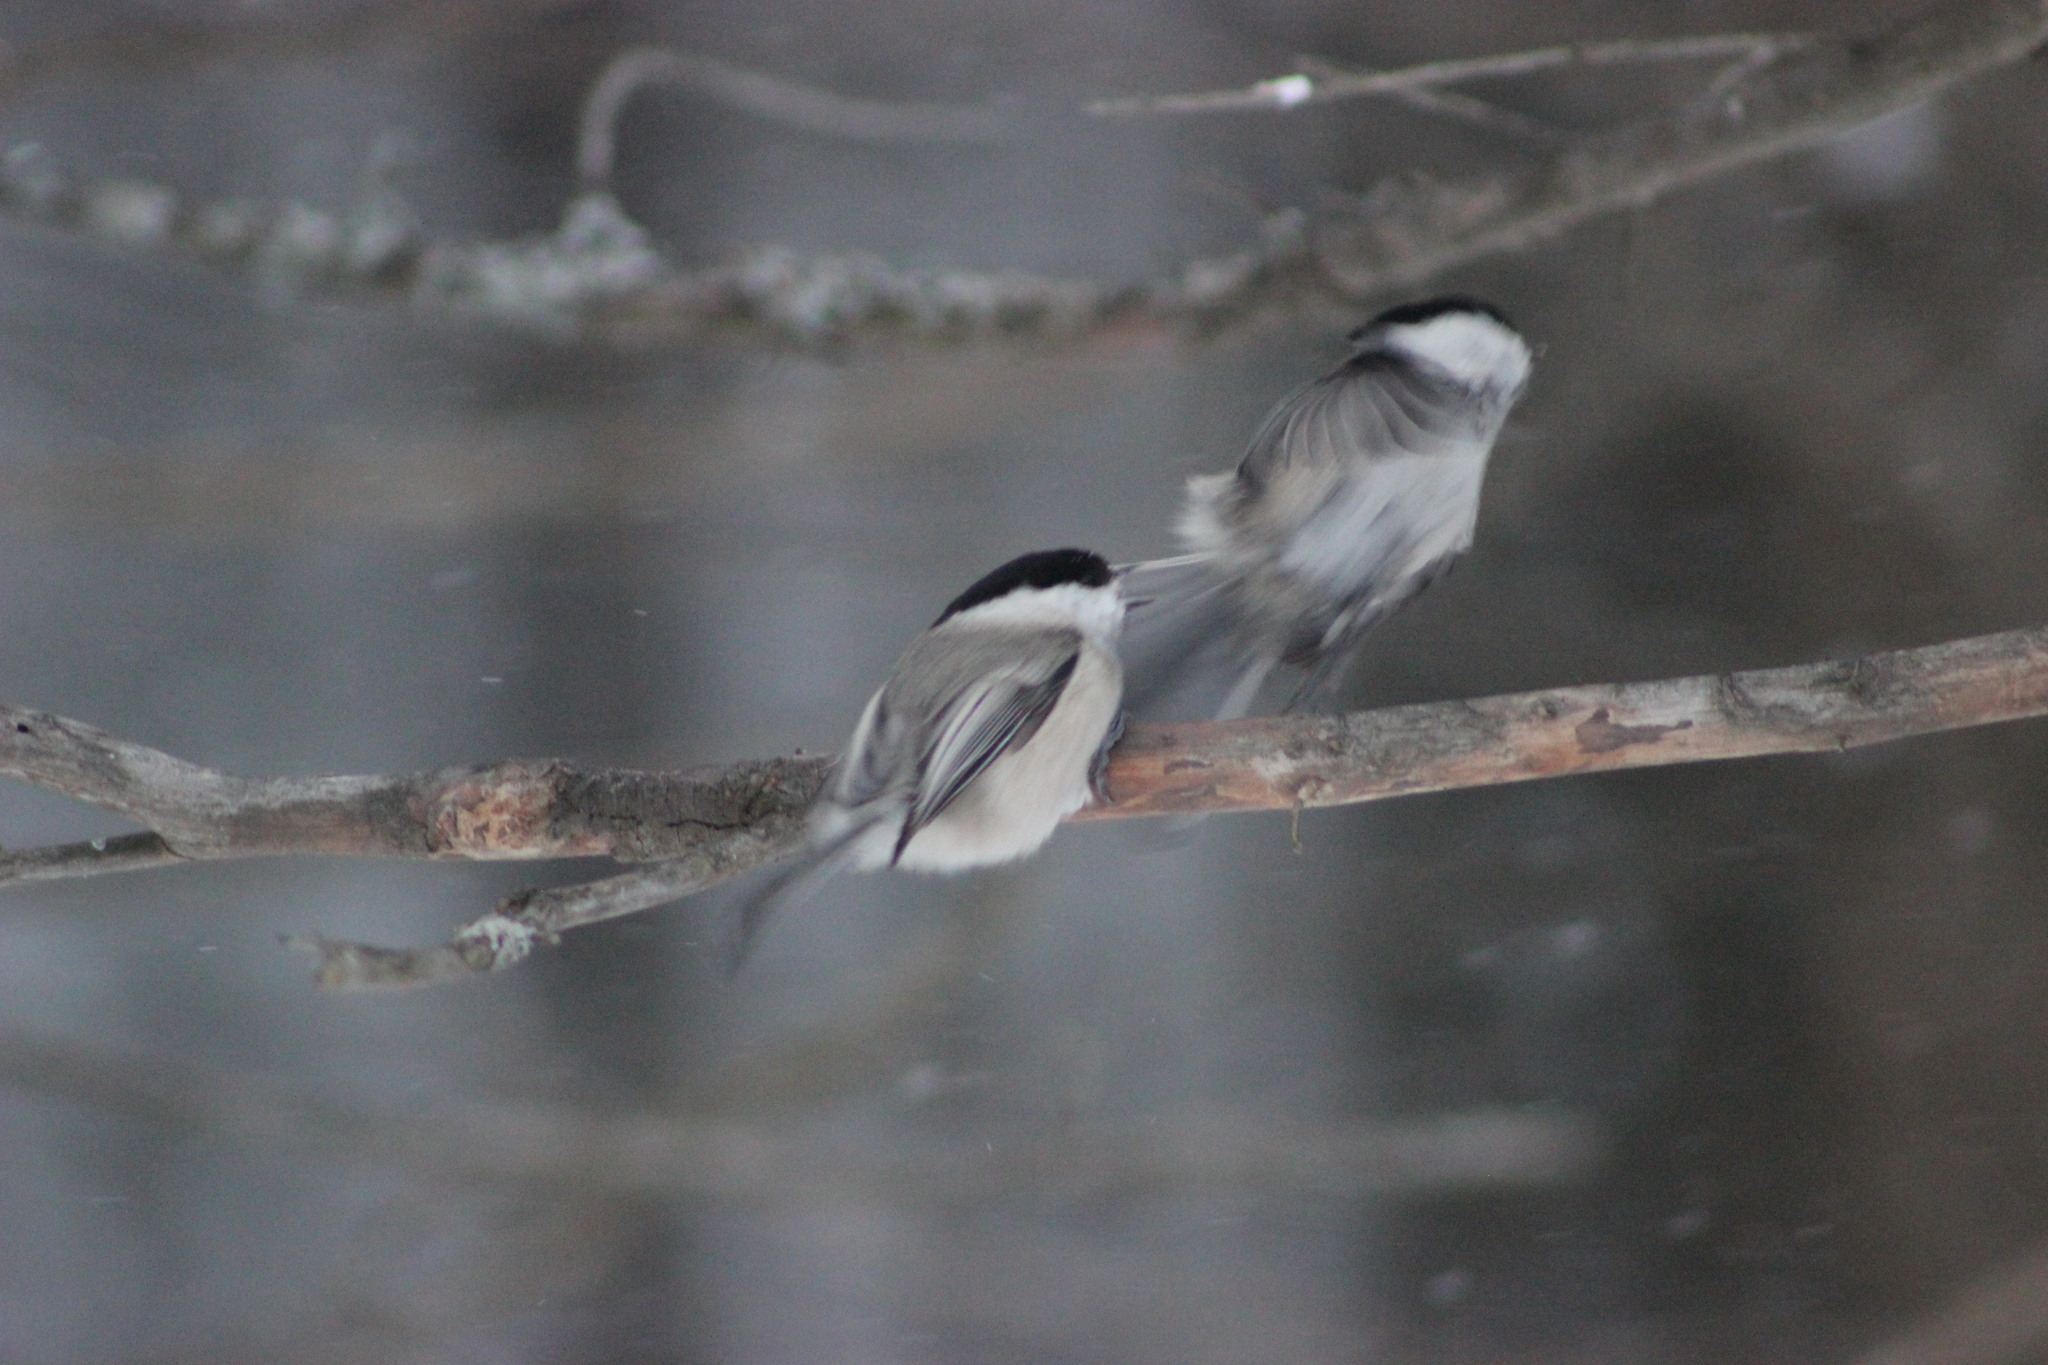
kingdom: Animalia
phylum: Chordata
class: Aves
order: Passeriformes
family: Paridae
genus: Poecile
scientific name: Poecile montanus
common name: Willow tit
